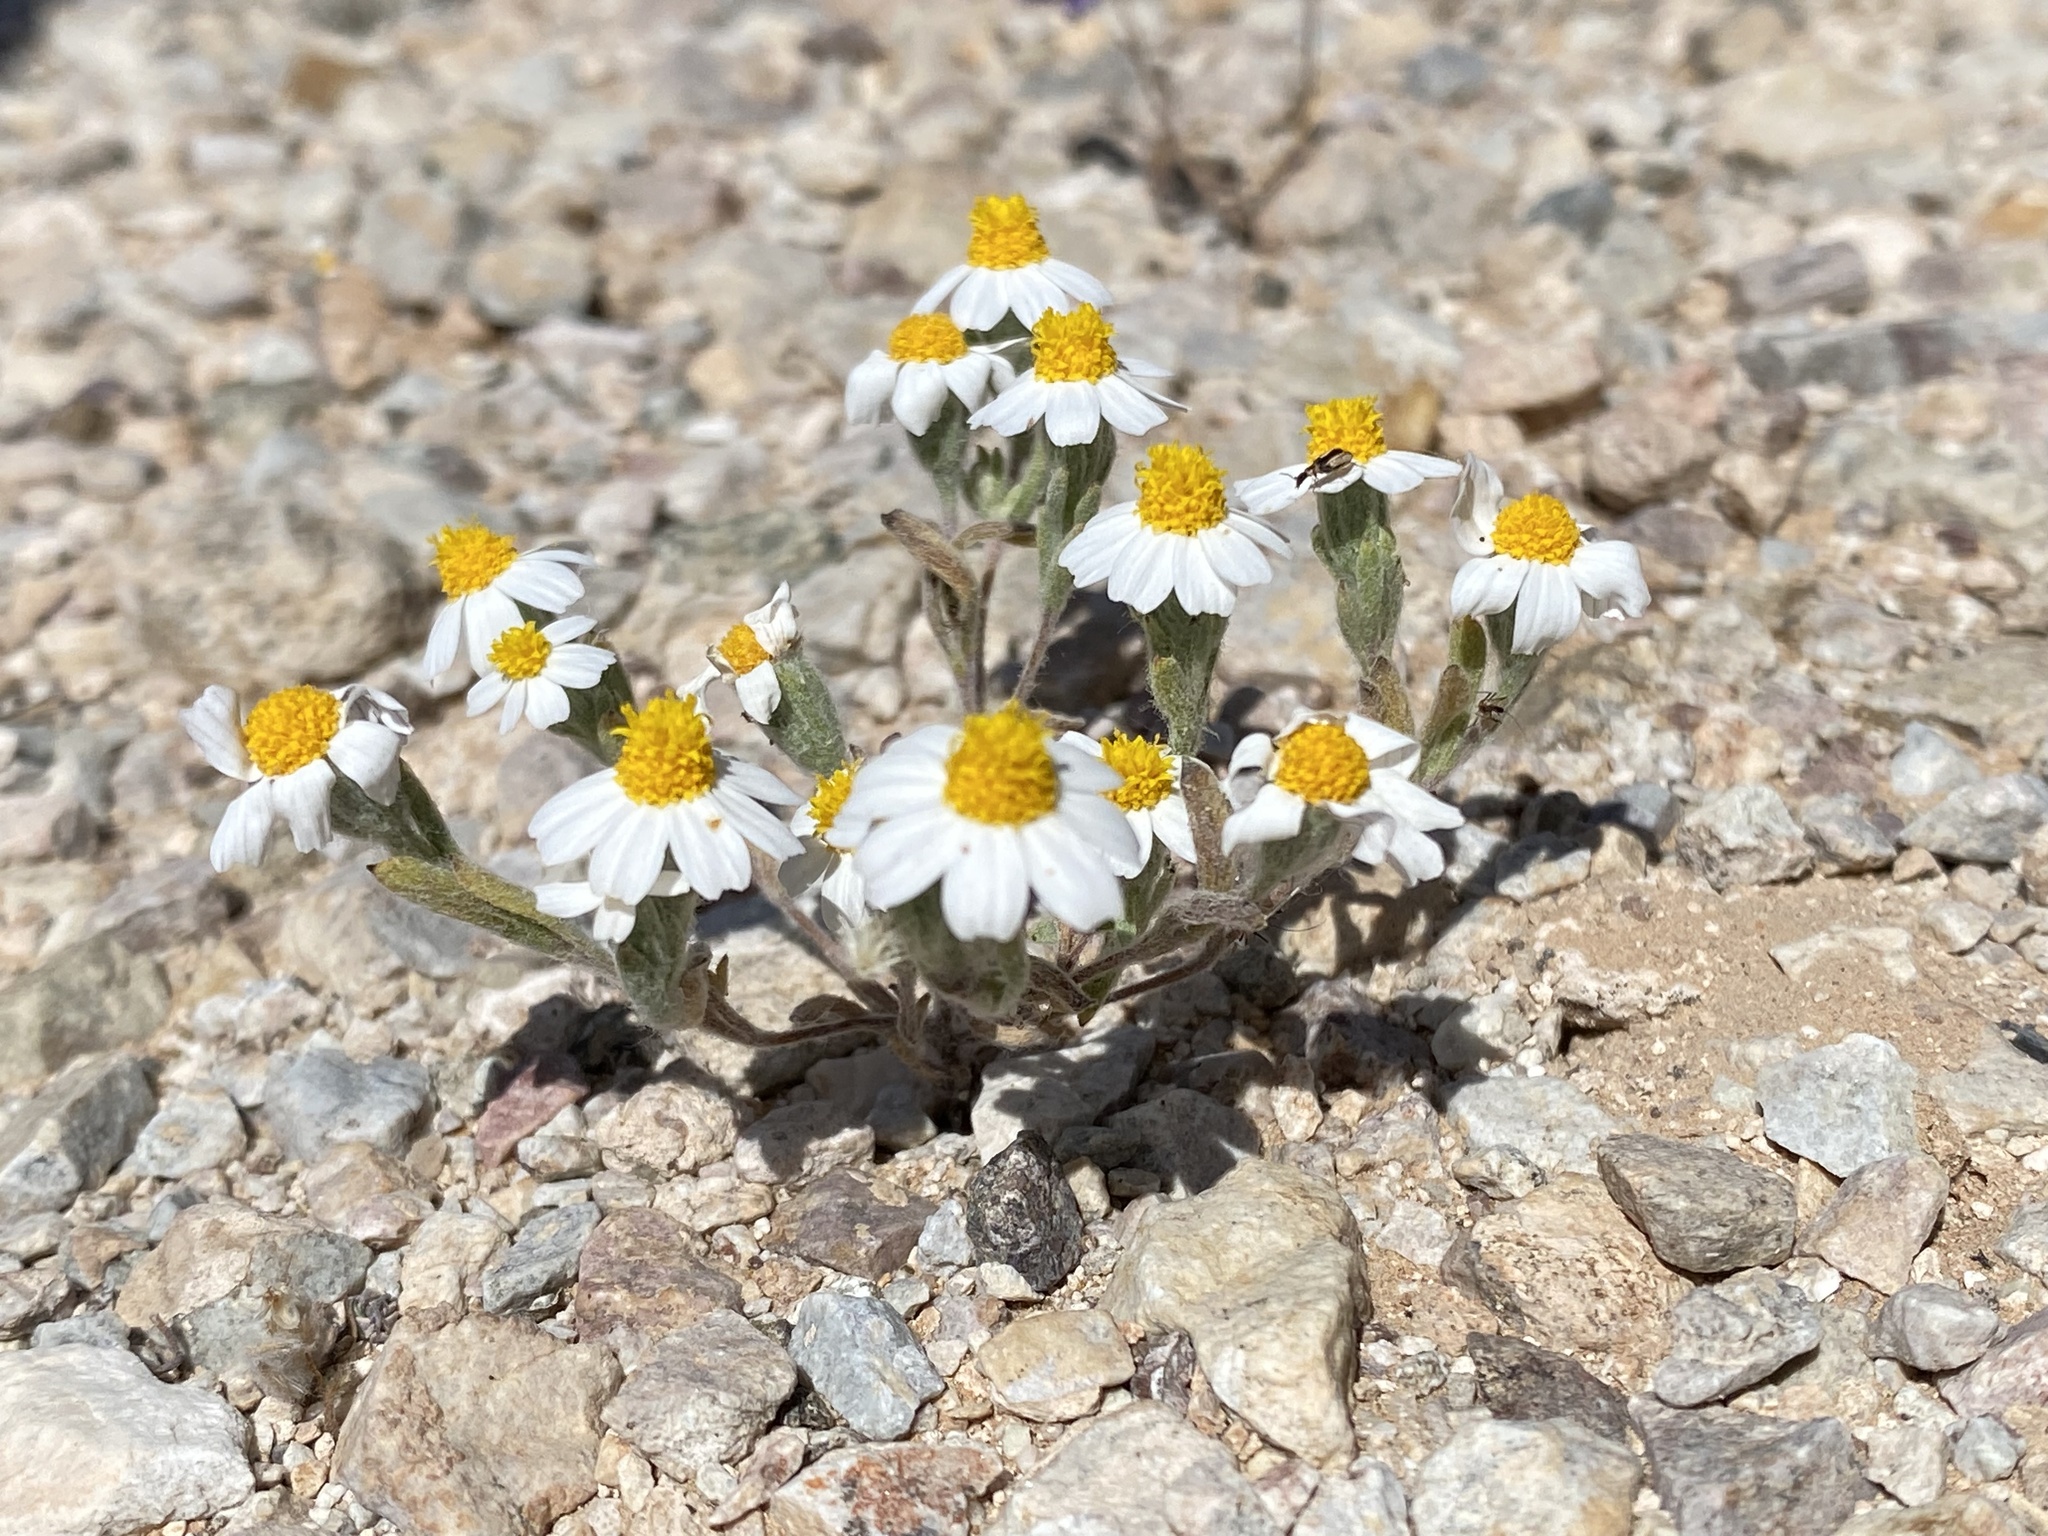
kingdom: Plantae
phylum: Tracheophyta
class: Magnoliopsida
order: Asterales
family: Asteraceae
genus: Eriophyllum
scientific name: Eriophyllum lanosum
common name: White easter-bonnets
